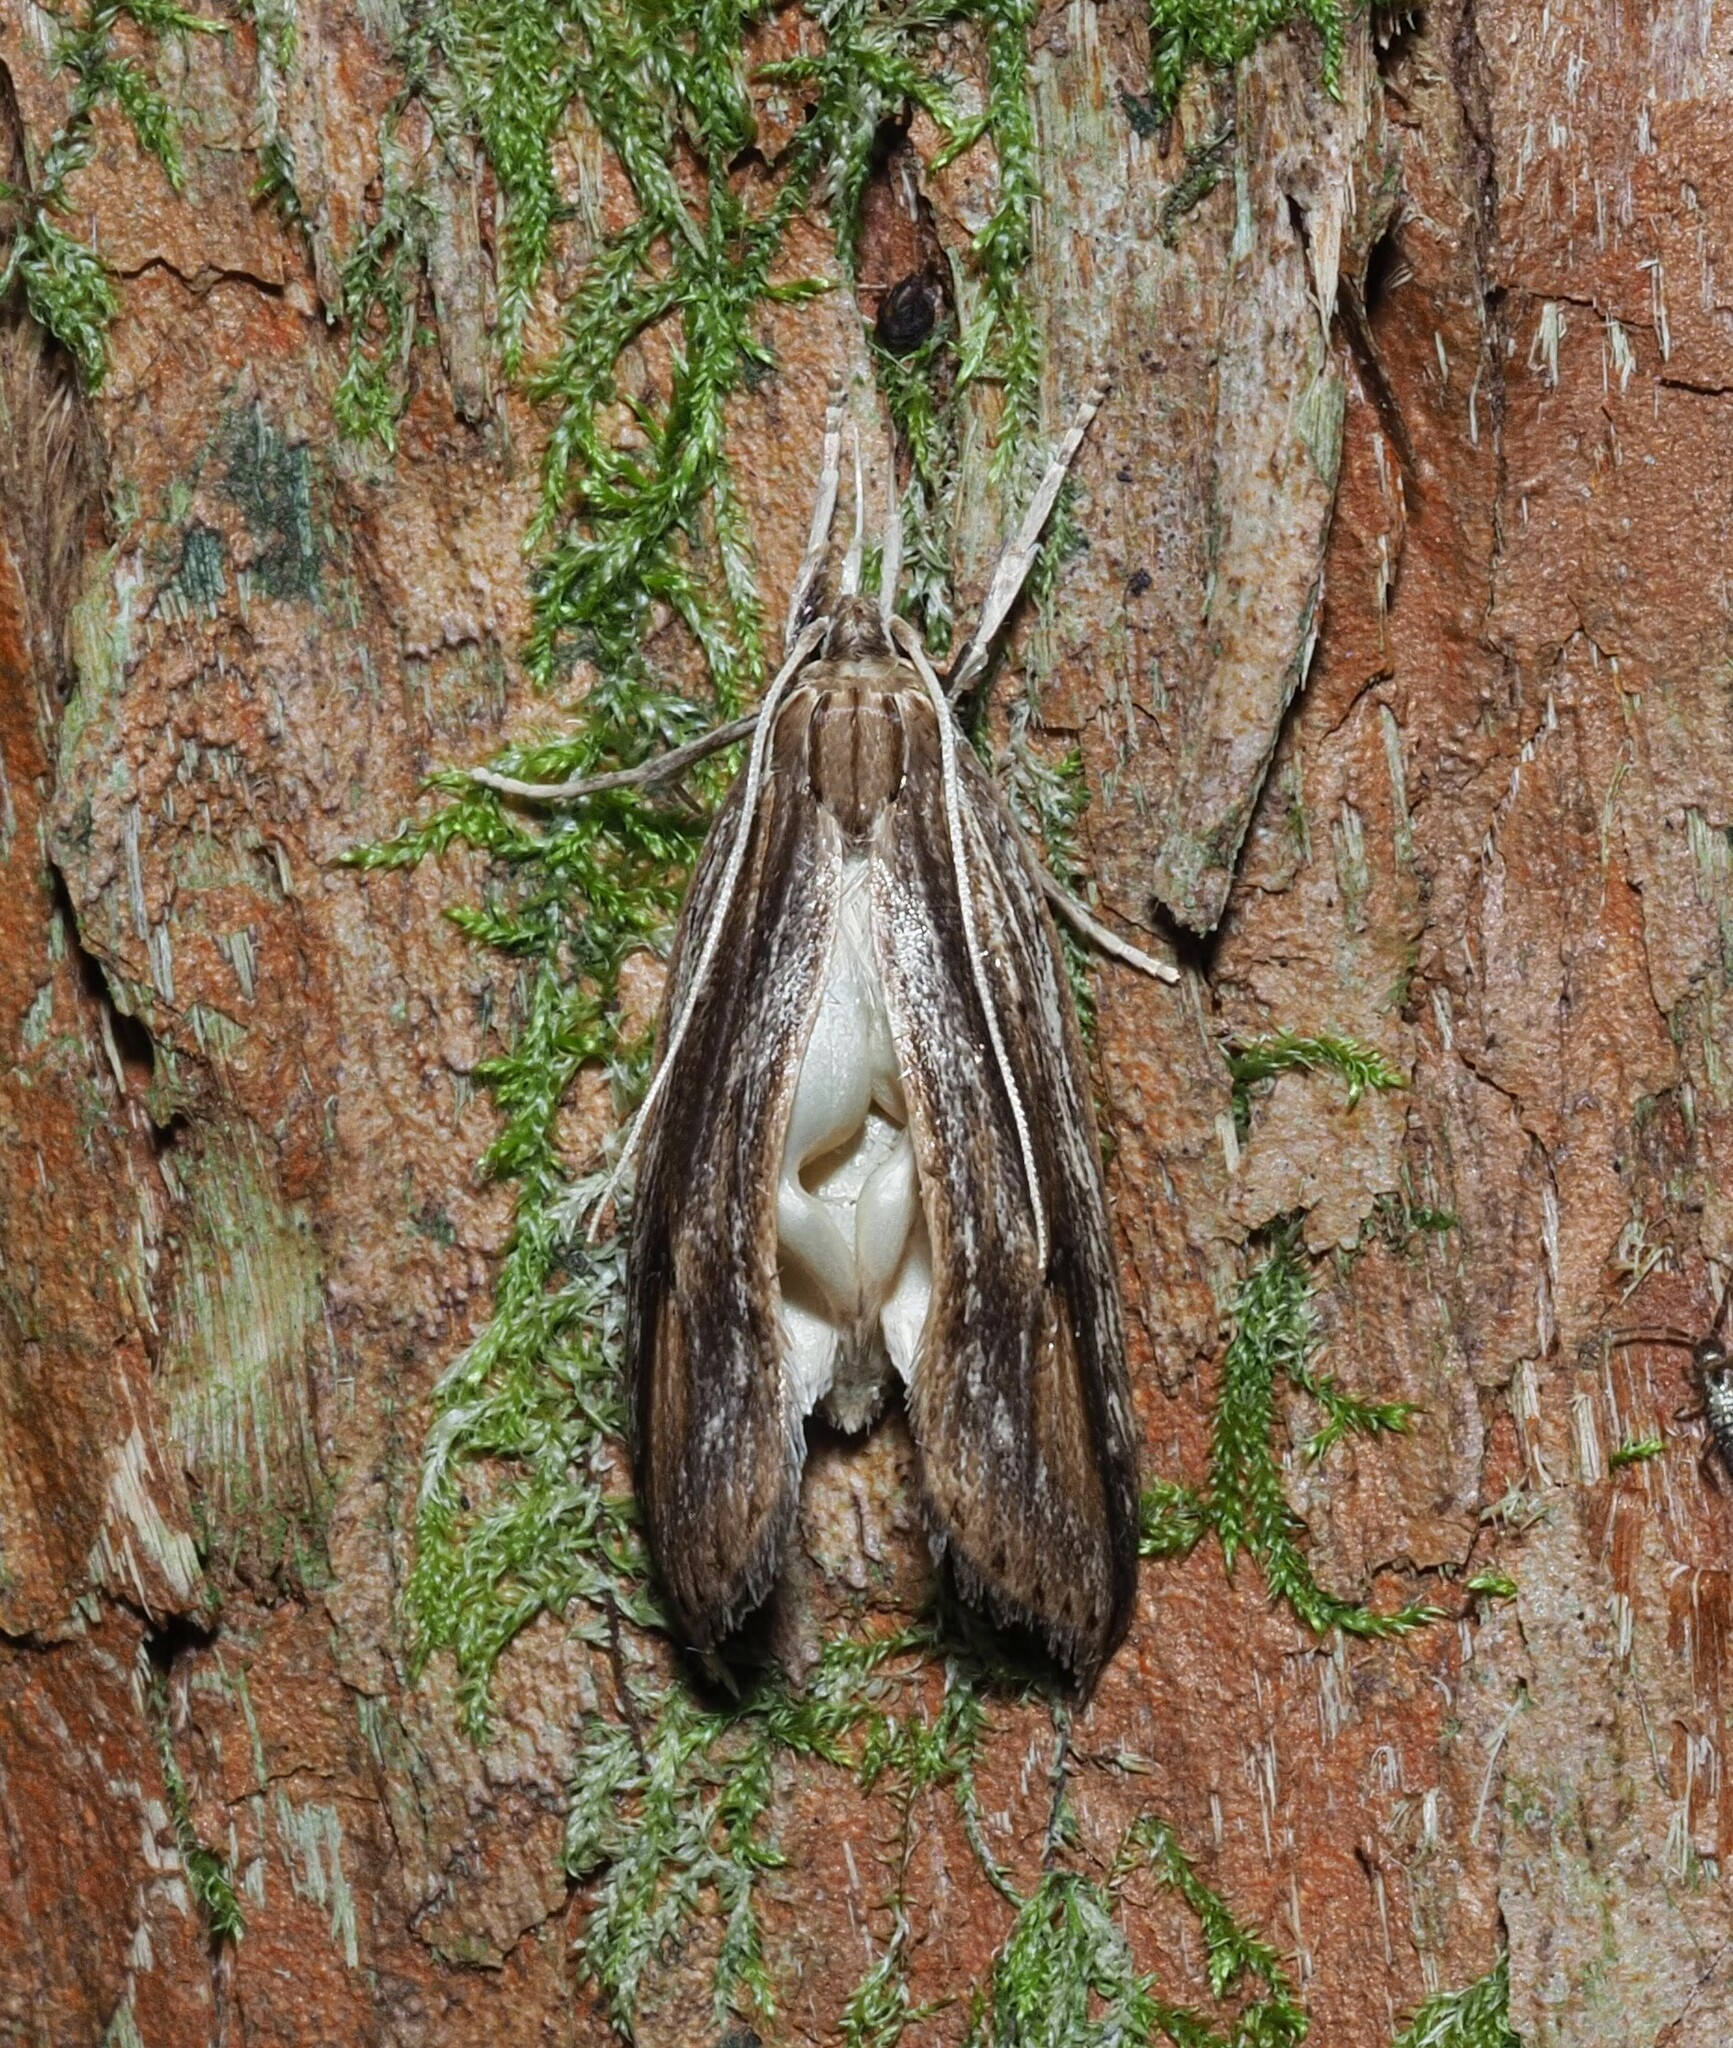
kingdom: Animalia
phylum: Arthropoda
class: Insecta
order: Lepidoptera
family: Xyloryctidae
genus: Donacostola
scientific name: Donacostola notabilis
